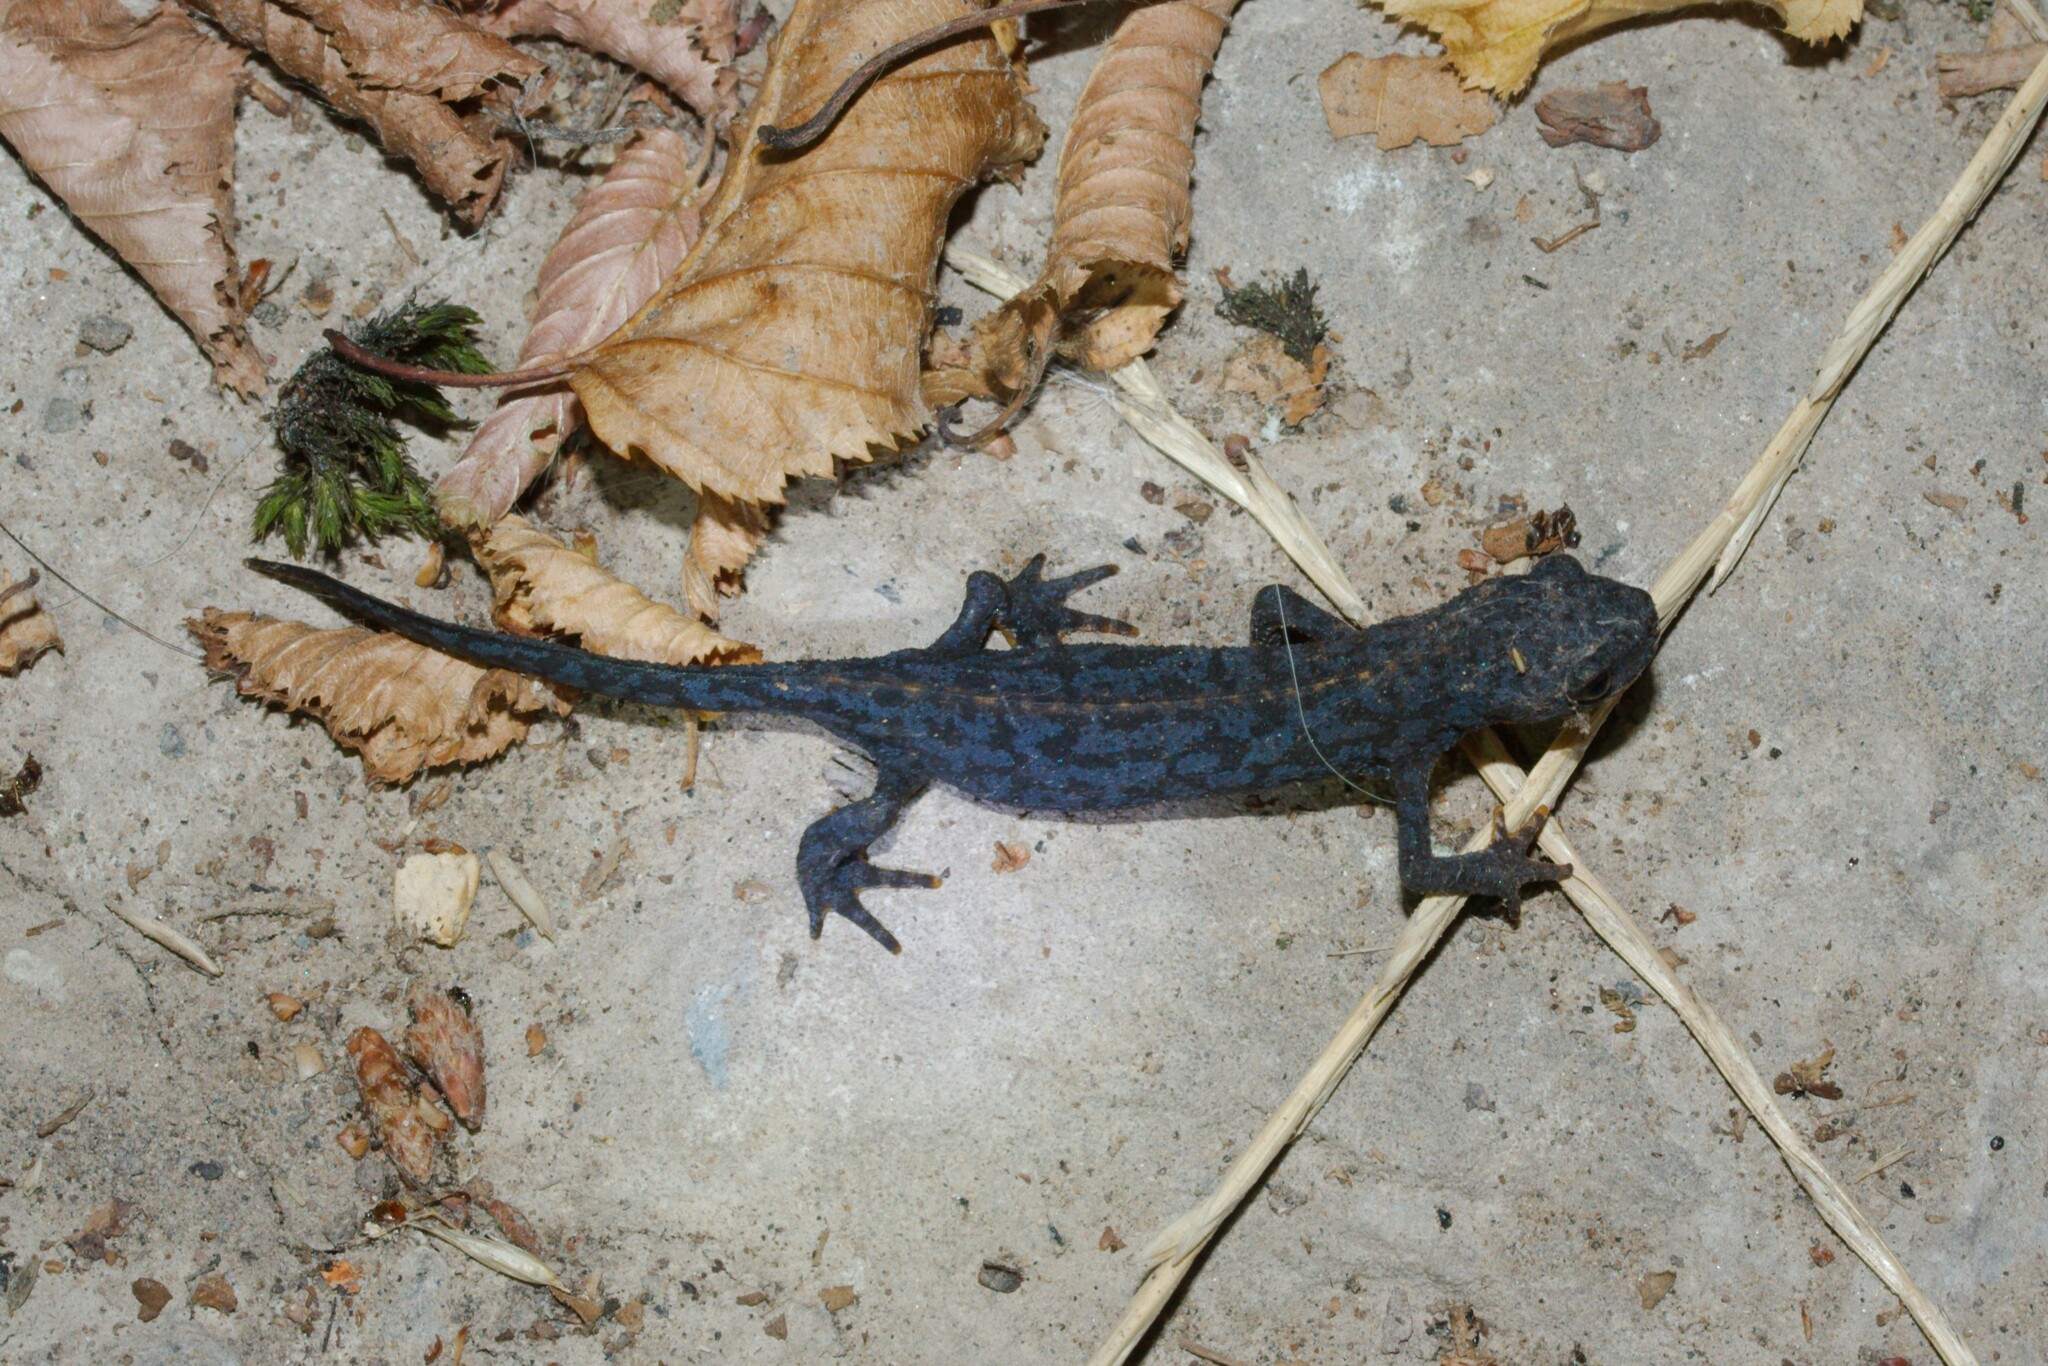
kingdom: Animalia
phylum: Chordata
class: Amphibia
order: Caudata
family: Salamandridae
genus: Ichthyosaura
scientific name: Ichthyosaura alpestris
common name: Alpine newt
